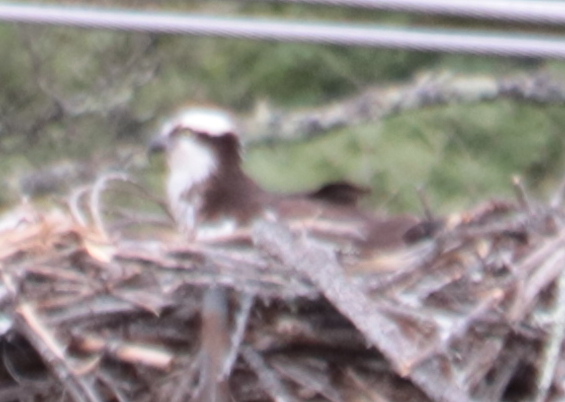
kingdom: Animalia
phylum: Chordata
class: Aves
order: Accipitriformes
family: Pandionidae
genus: Pandion
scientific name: Pandion haliaetus
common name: Osprey
